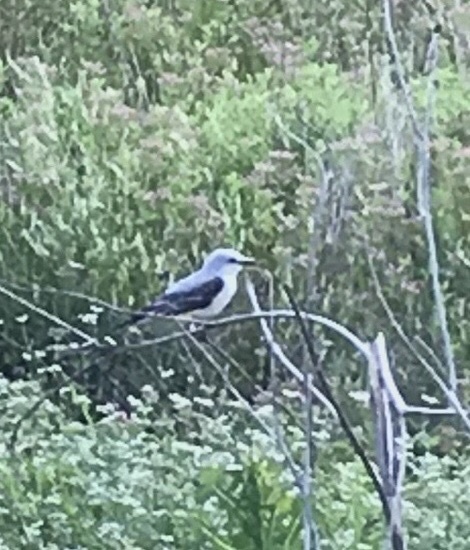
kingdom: Animalia
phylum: Chordata
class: Aves
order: Passeriformes
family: Tyrannidae
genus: Tyrannus
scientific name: Tyrannus forficatus
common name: Scissor-tailed flycatcher
